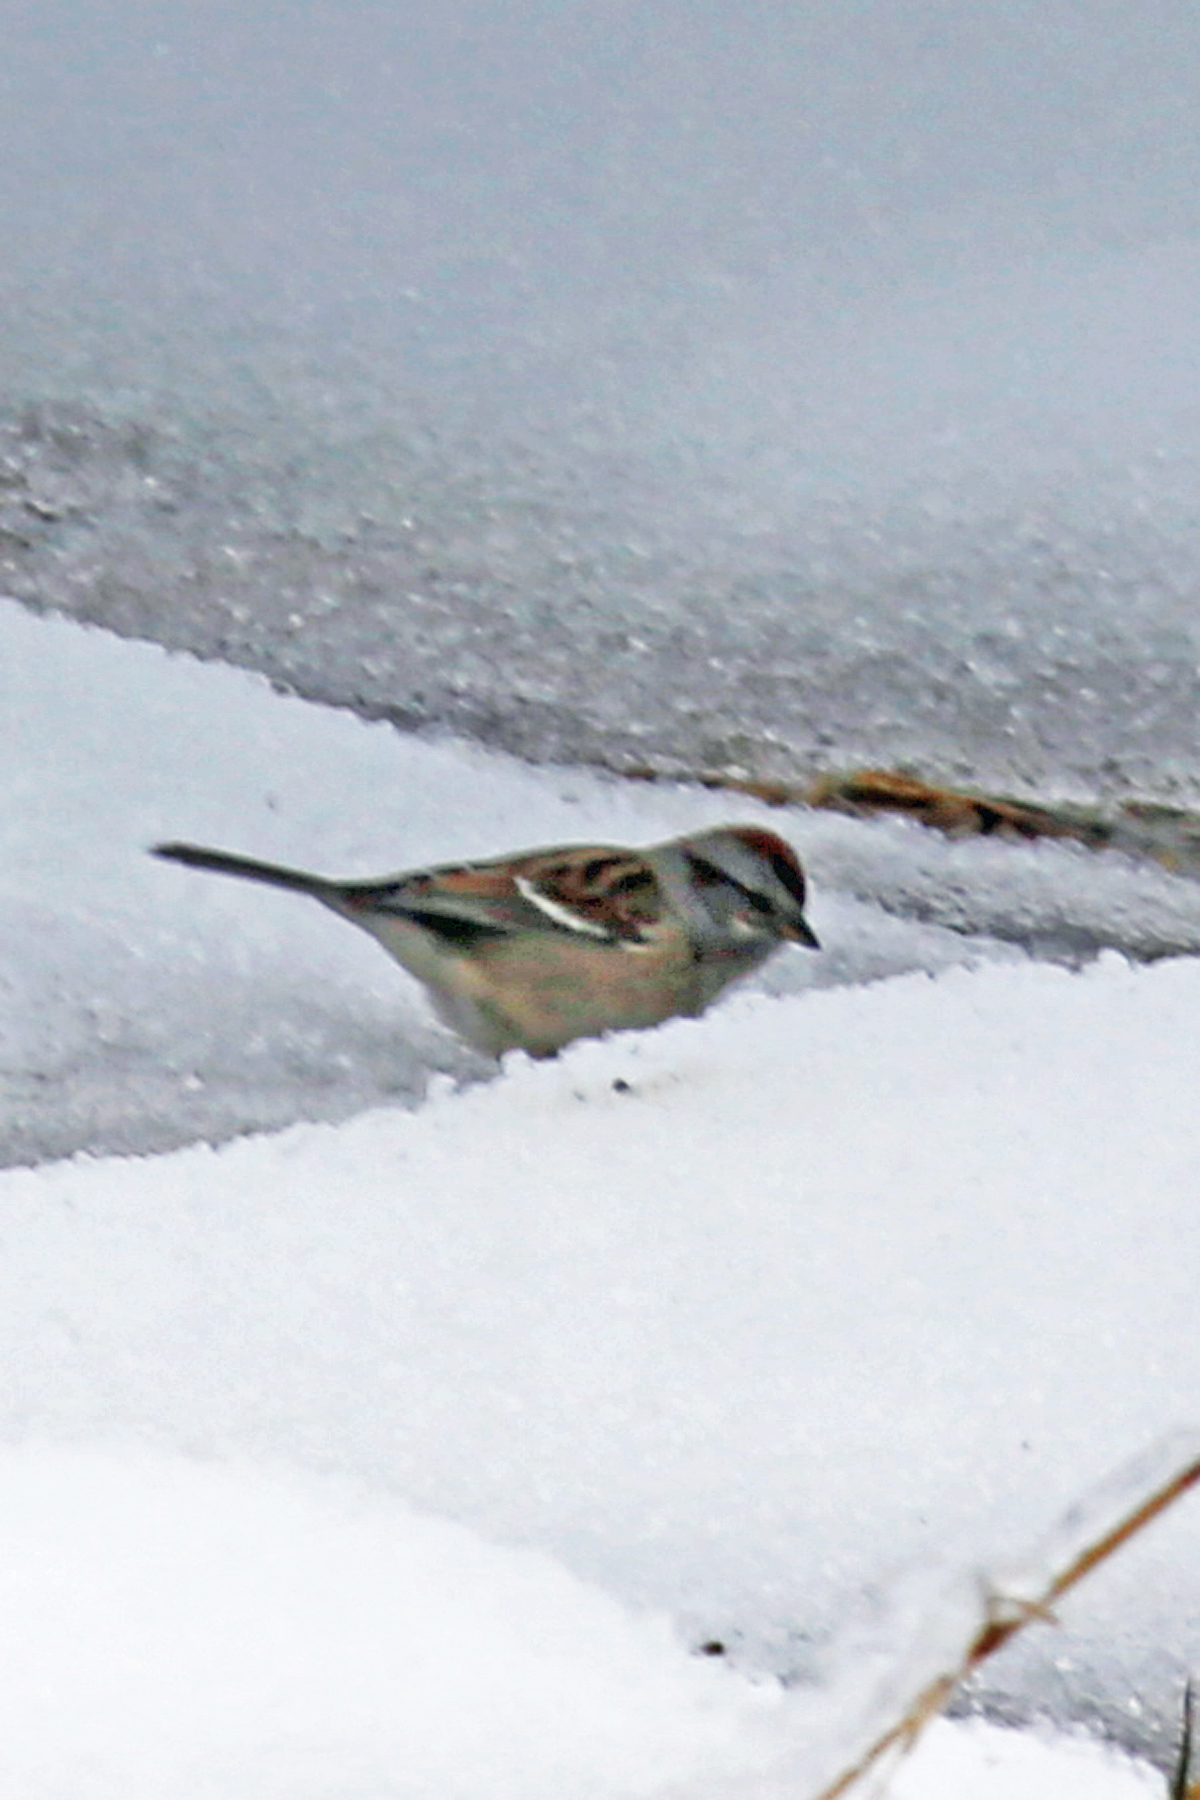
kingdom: Animalia
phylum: Chordata
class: Aves
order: Passeriformes
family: Passerellidae
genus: Spizelloides
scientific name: Spizelloides arborea
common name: American tree sparrow
